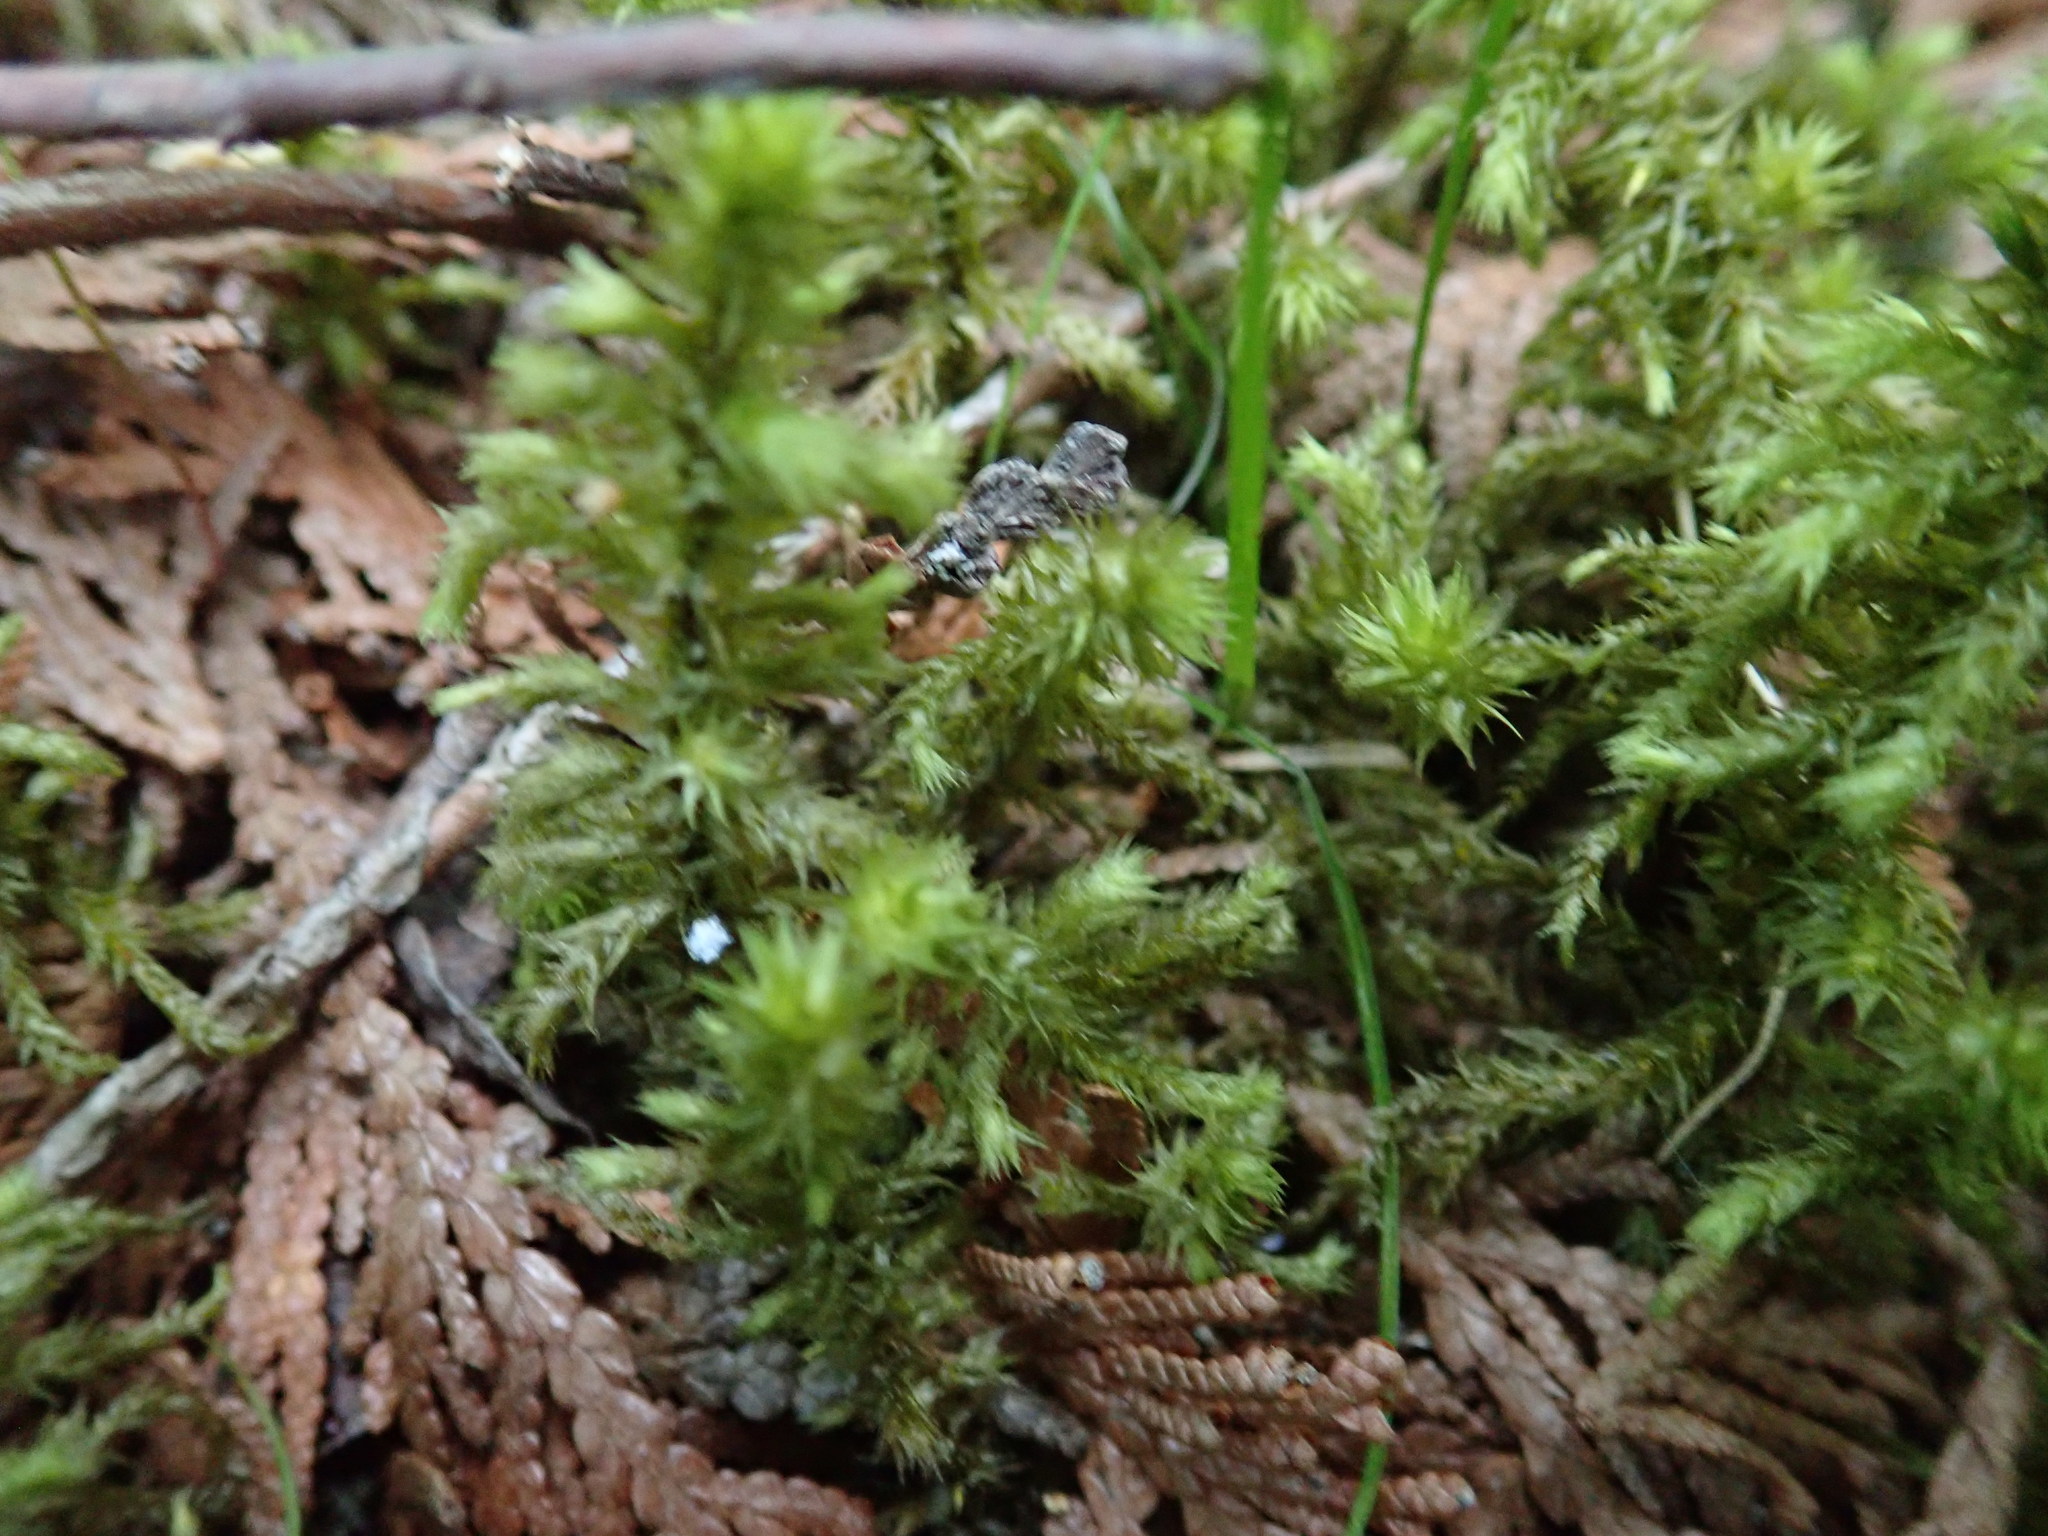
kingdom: Plantae
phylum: Bryophyta
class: Bryopsida
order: Hypnales
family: Hylocomiaceae
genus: Hylocomiadelphus
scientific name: Hylocomiadelphus triquetrus
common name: Rough goose neck moss
